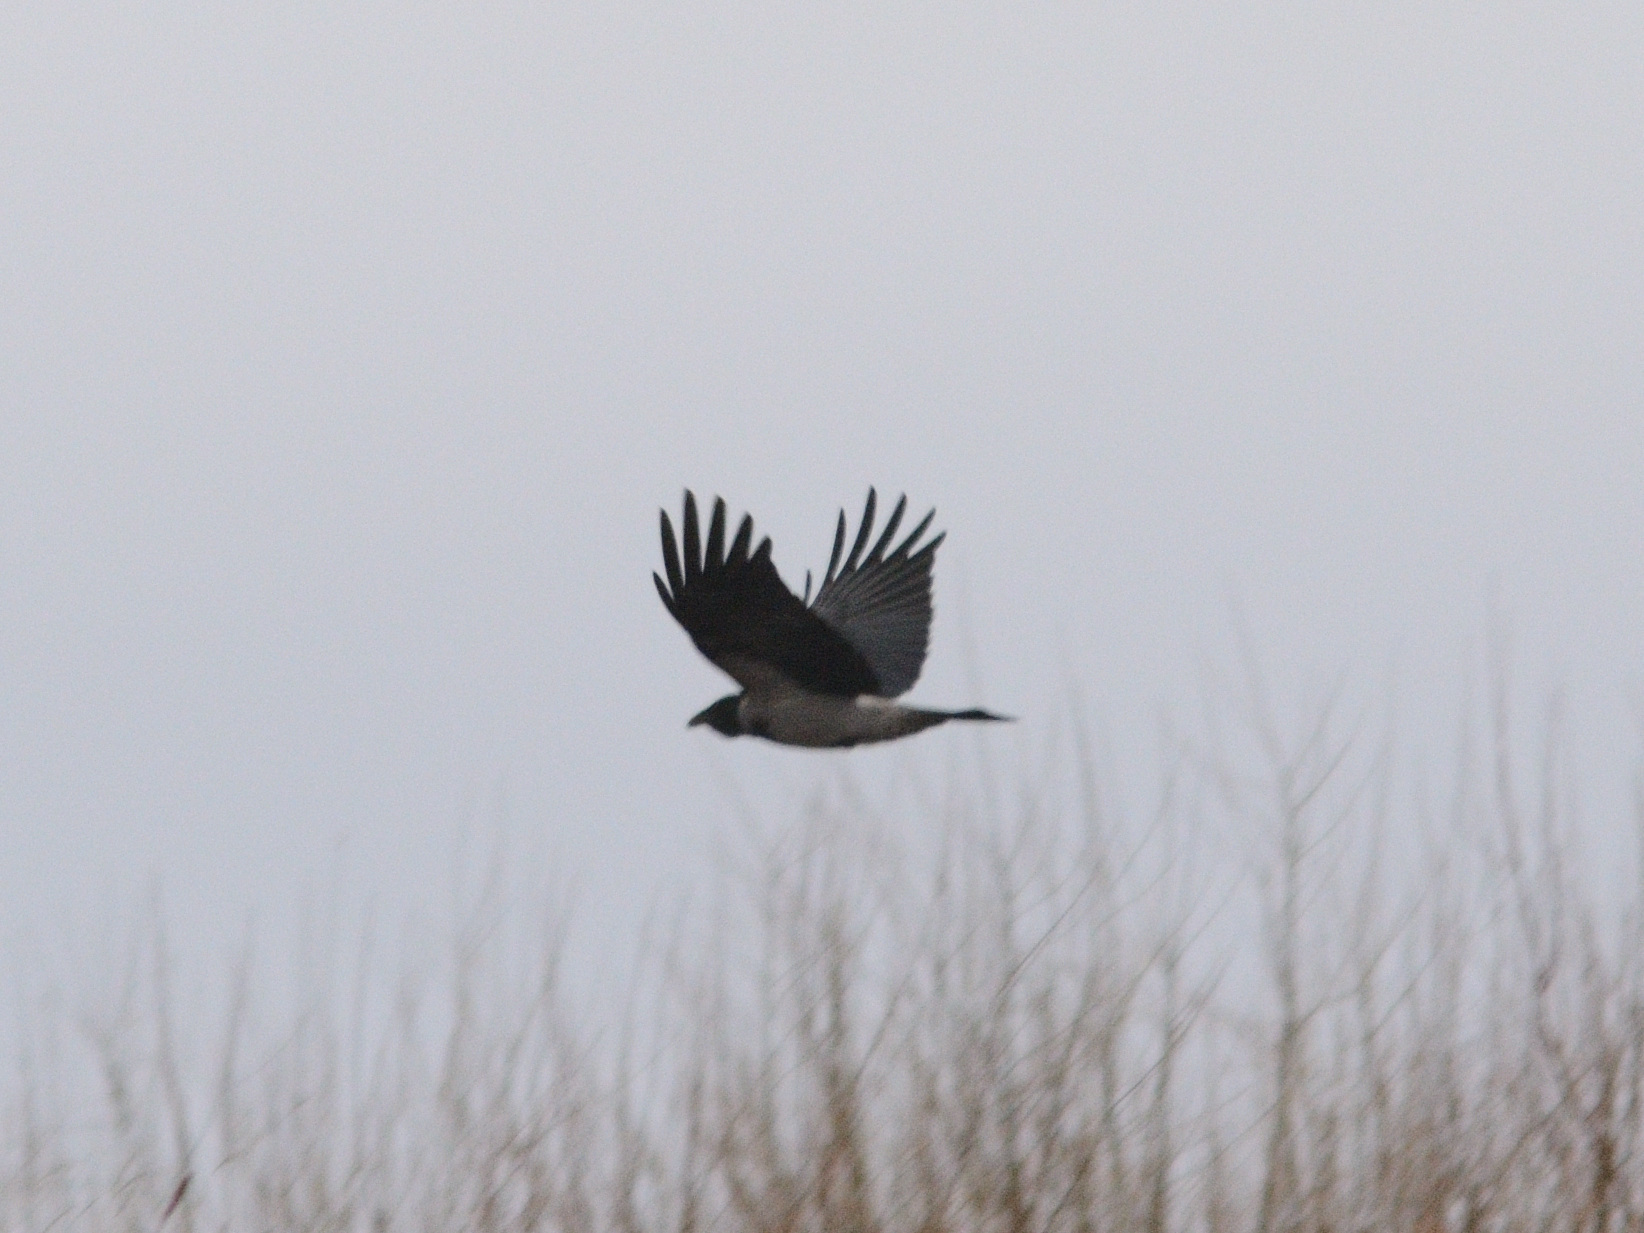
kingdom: Animalia
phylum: Chordata
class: Aves
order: Passeriformes
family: Corvidae
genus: Corvus
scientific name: Corvus cornix
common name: Hooded crow
